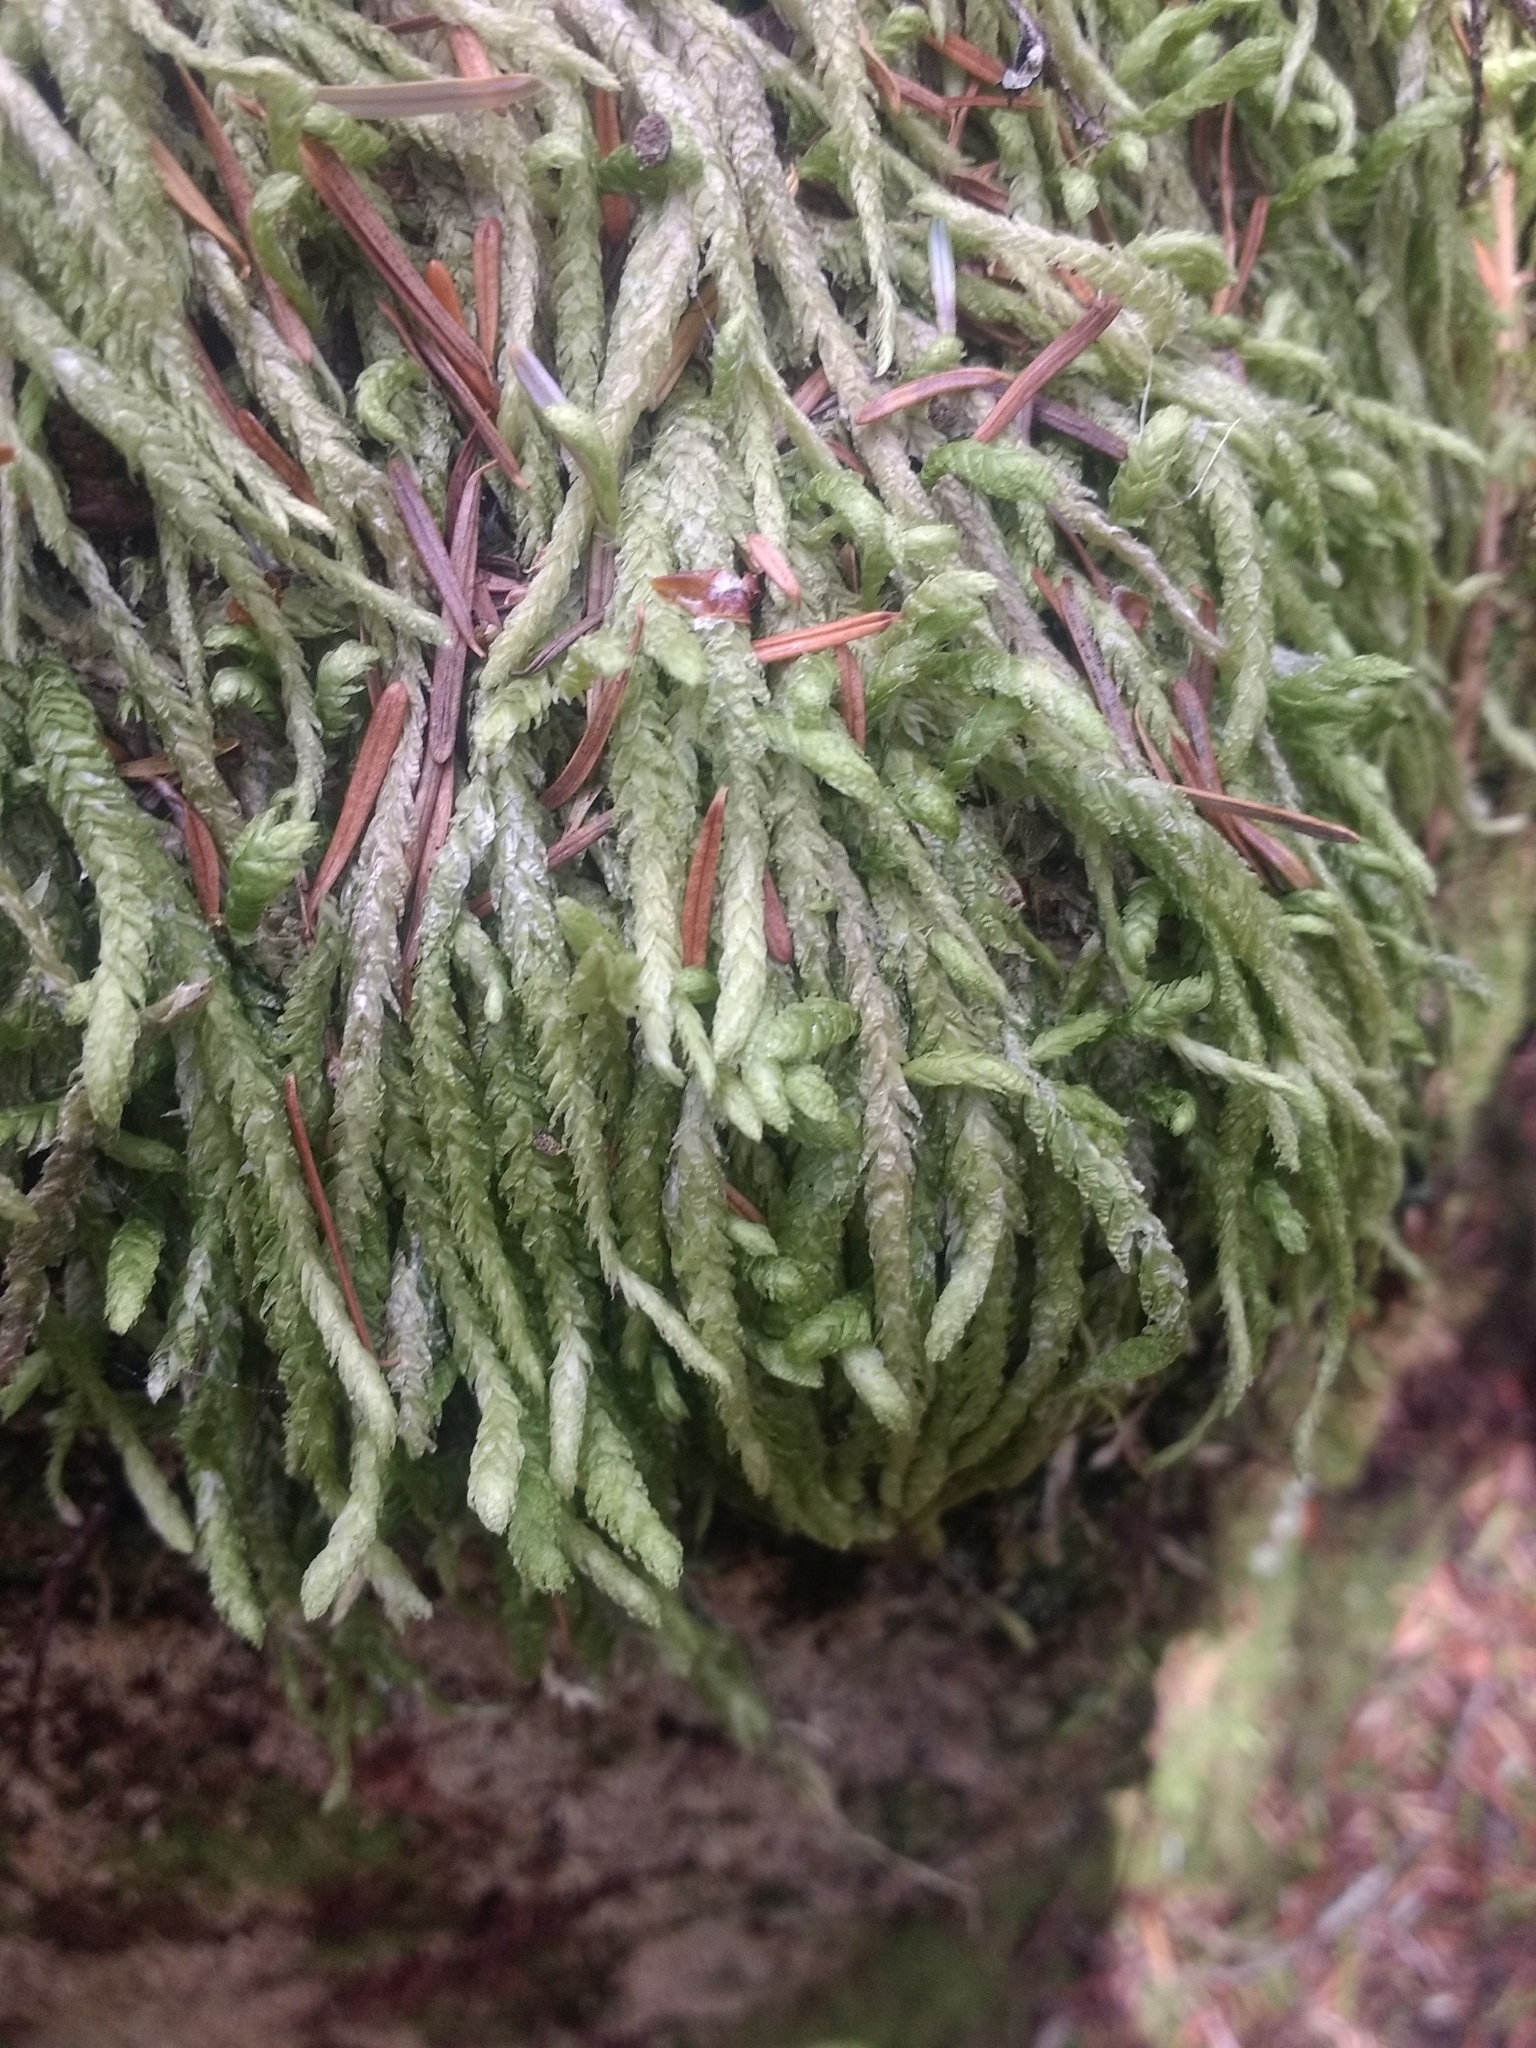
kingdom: Plantae
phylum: Bryophyta
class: Bryopsida
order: Hypnales
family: Plagiotheciaceae
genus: Plagiothecium
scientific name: Plagiothecium undulatum
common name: Waved silk-moss
